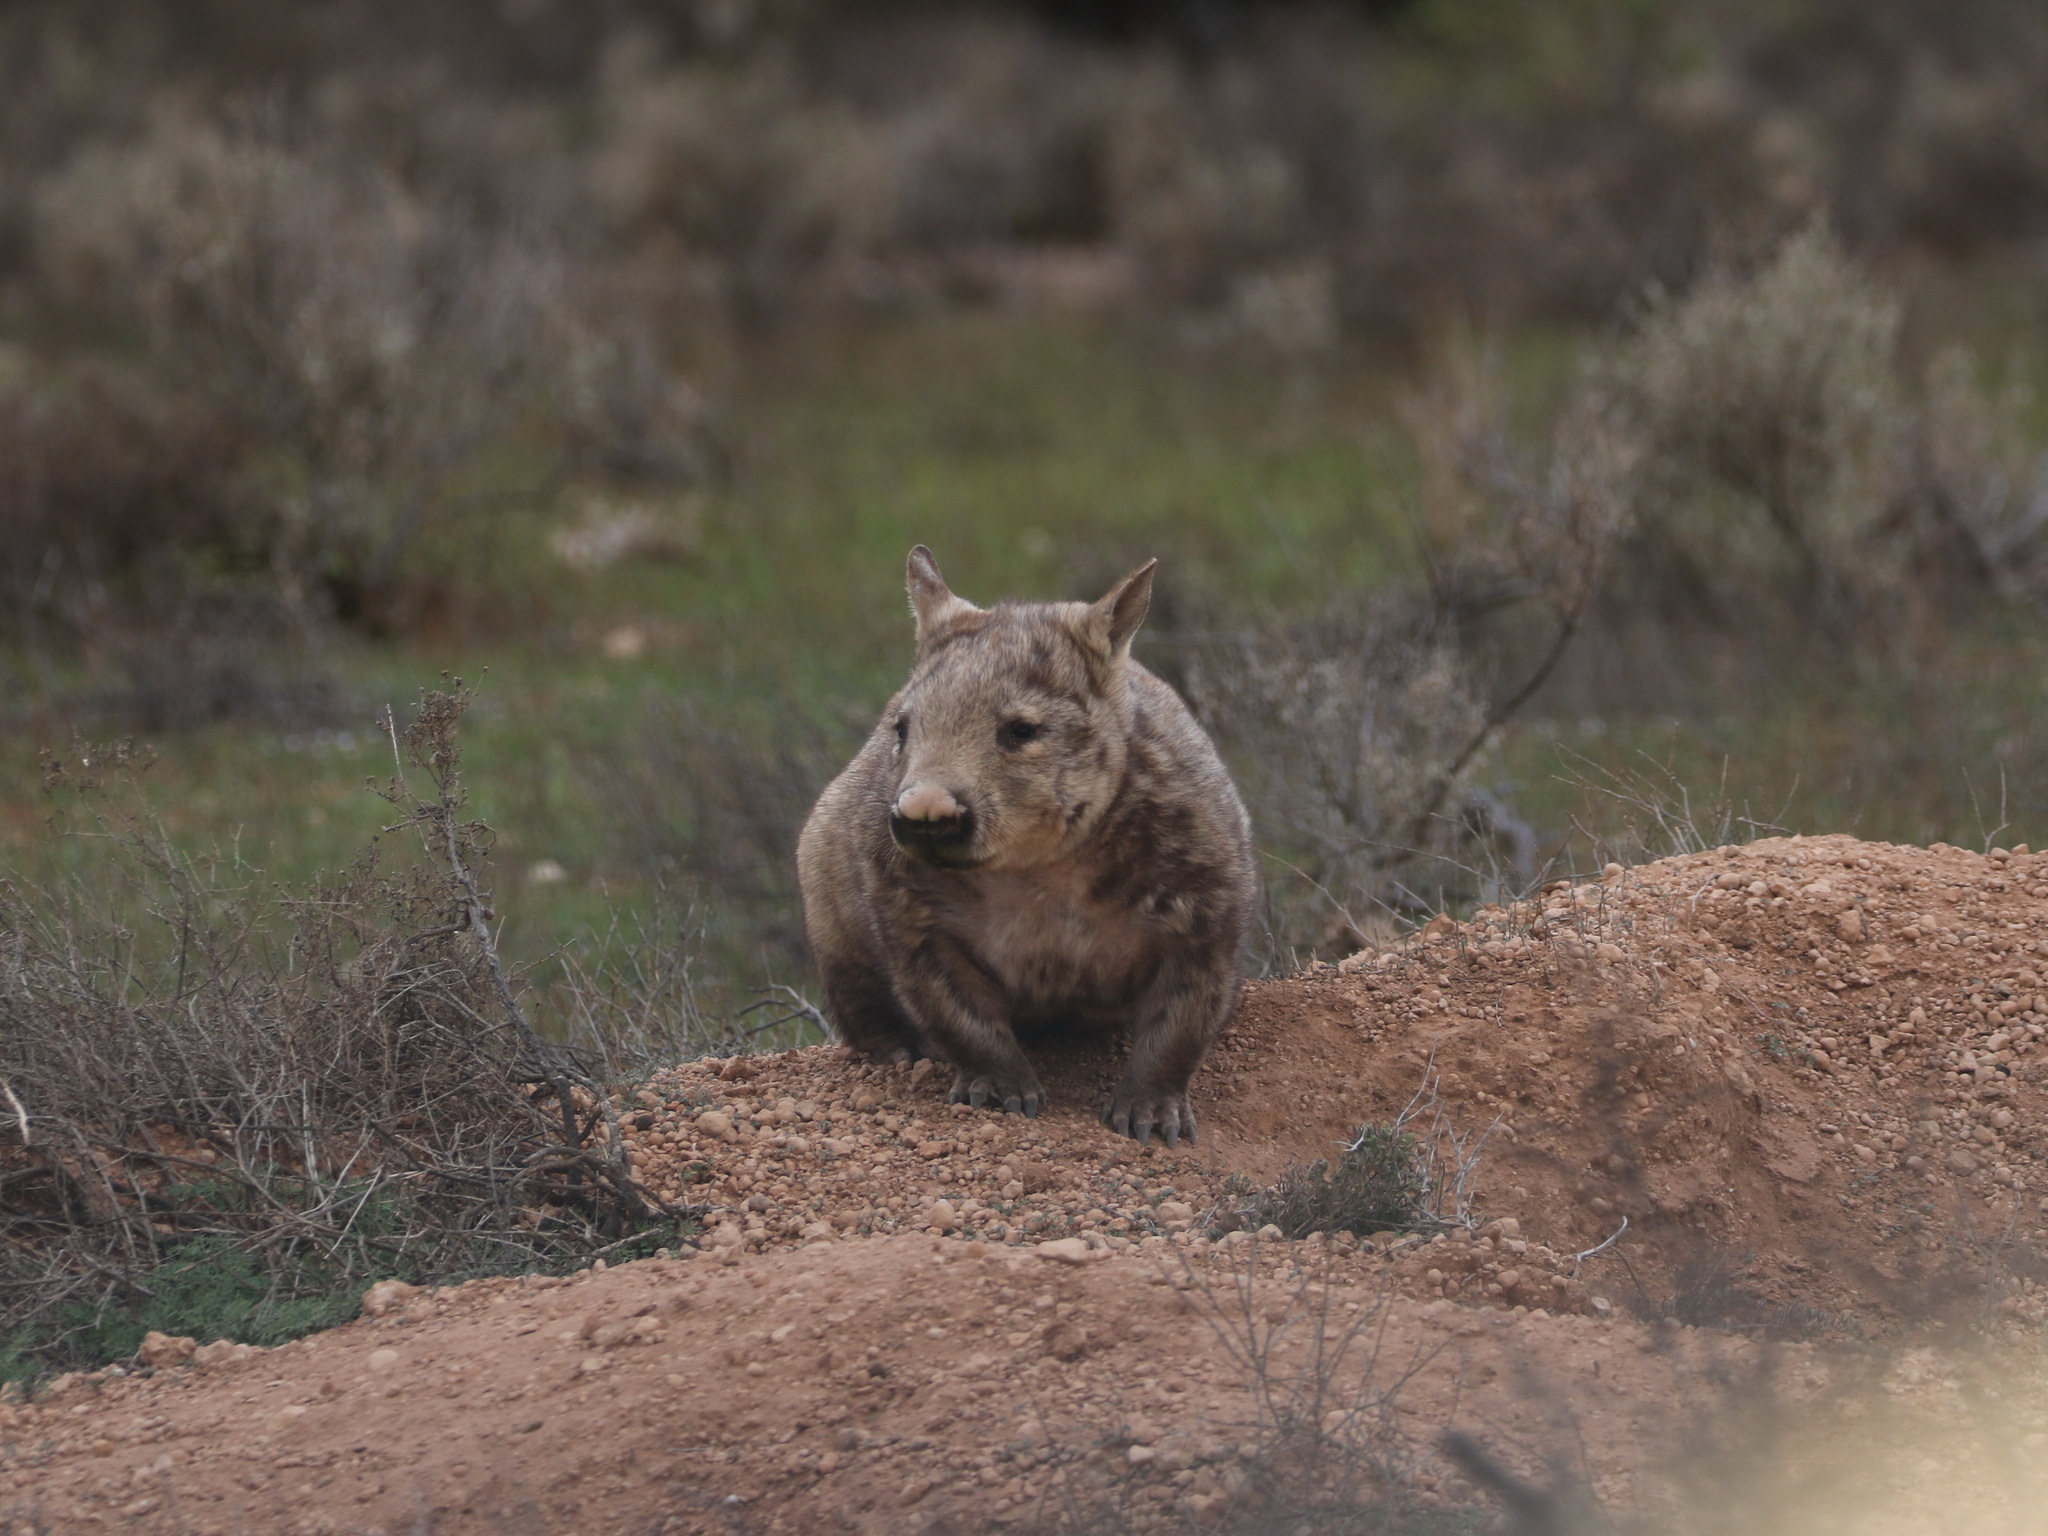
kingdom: Animalia
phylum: Chordata
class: Mammalia
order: Diprotodontia
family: Vombatidae
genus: Lasiorhinus
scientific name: Lasiorhinus latifrons
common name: Southern hairy-nosed wombat
